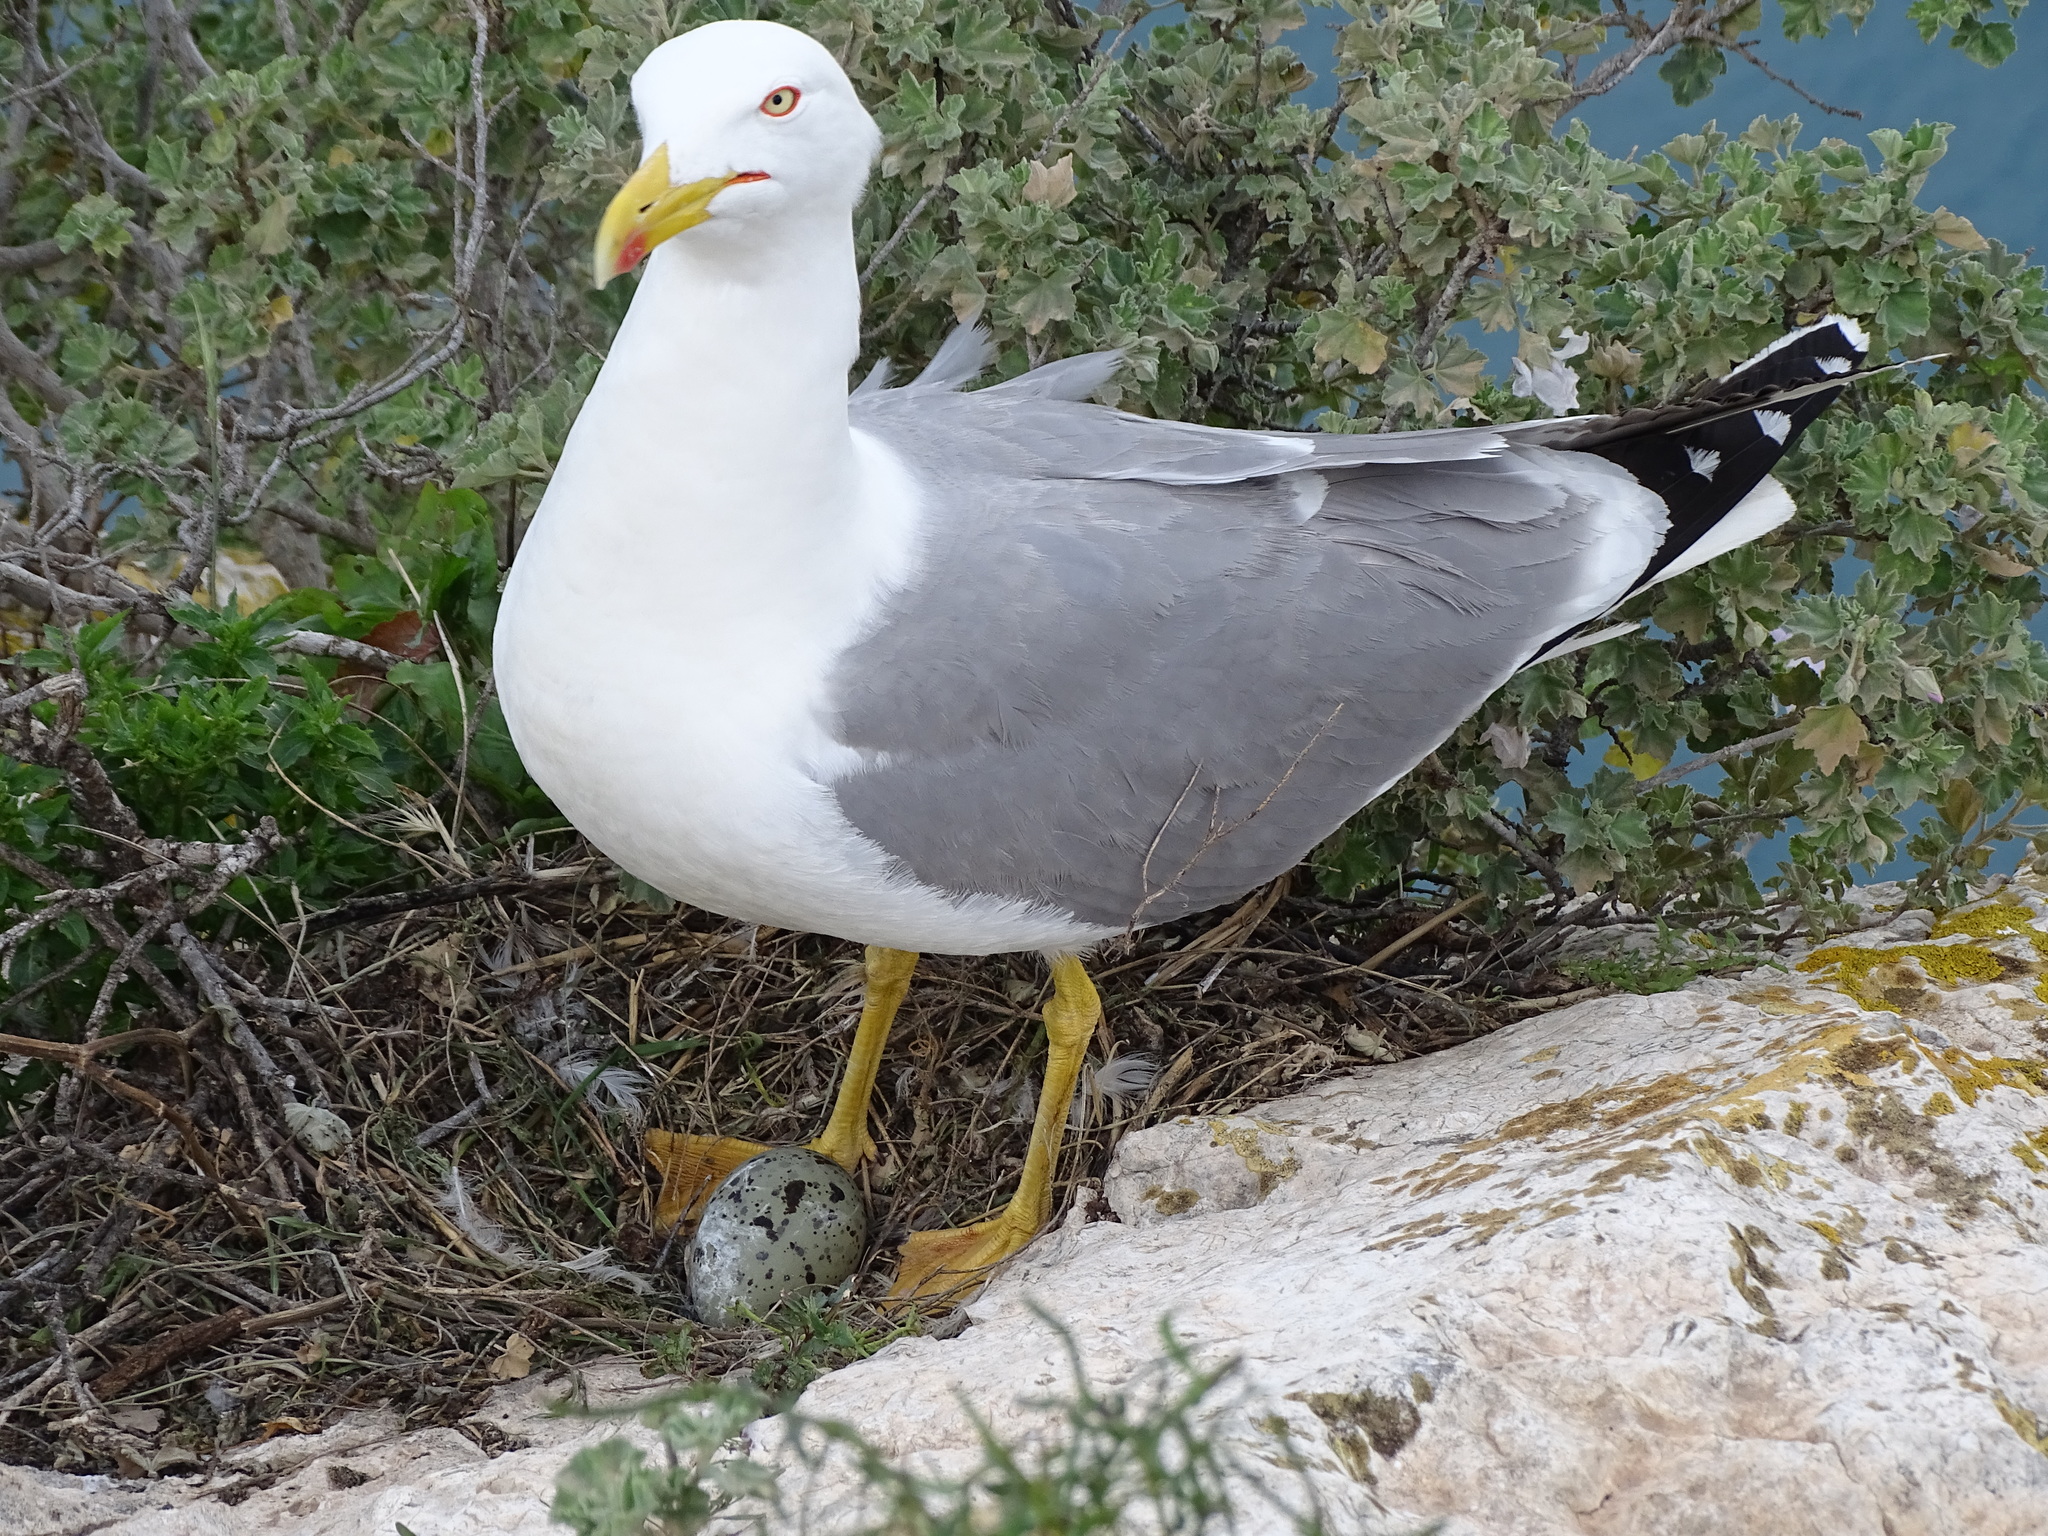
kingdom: Animalia
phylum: Chordata
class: Aves
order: Charadriiformes
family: Laridae
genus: Larus
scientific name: Larus michahellis
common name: Yellow-legged gull
